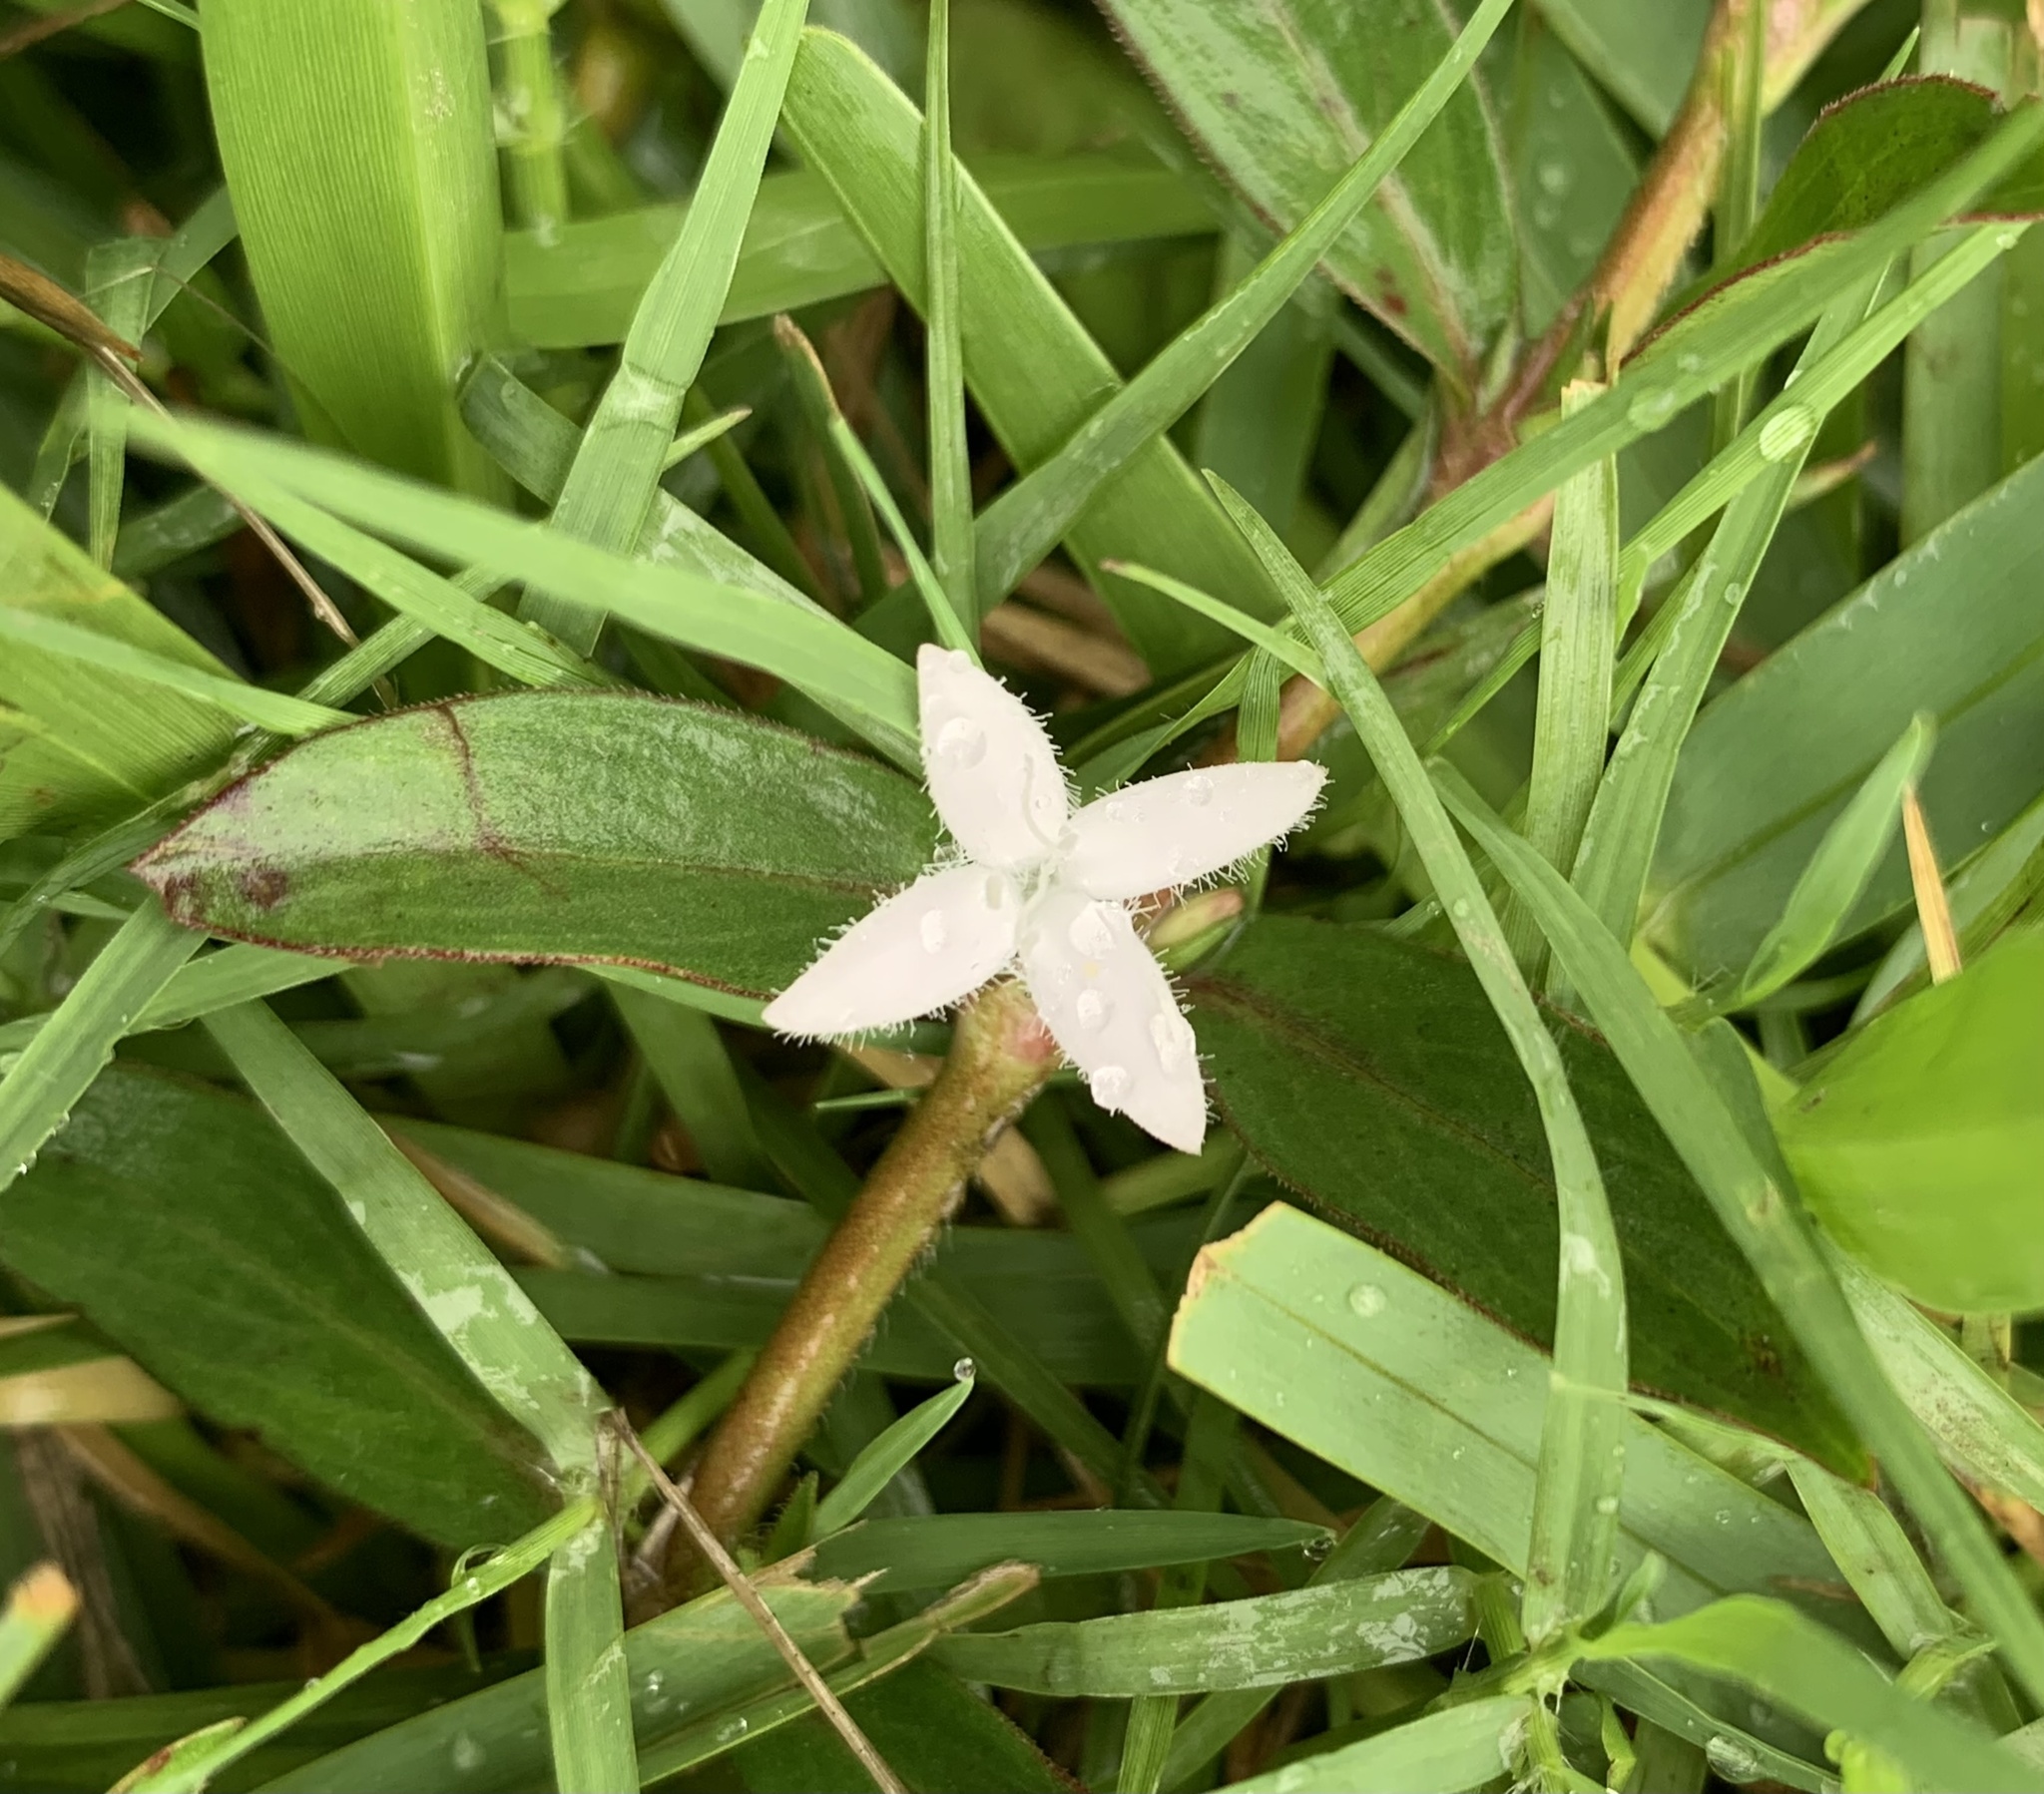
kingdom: Plantae
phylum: Tracheophyta
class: Magnoliopsida
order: Gentianales
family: Rubiaceae
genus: Diodia
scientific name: Diodia virginiana
